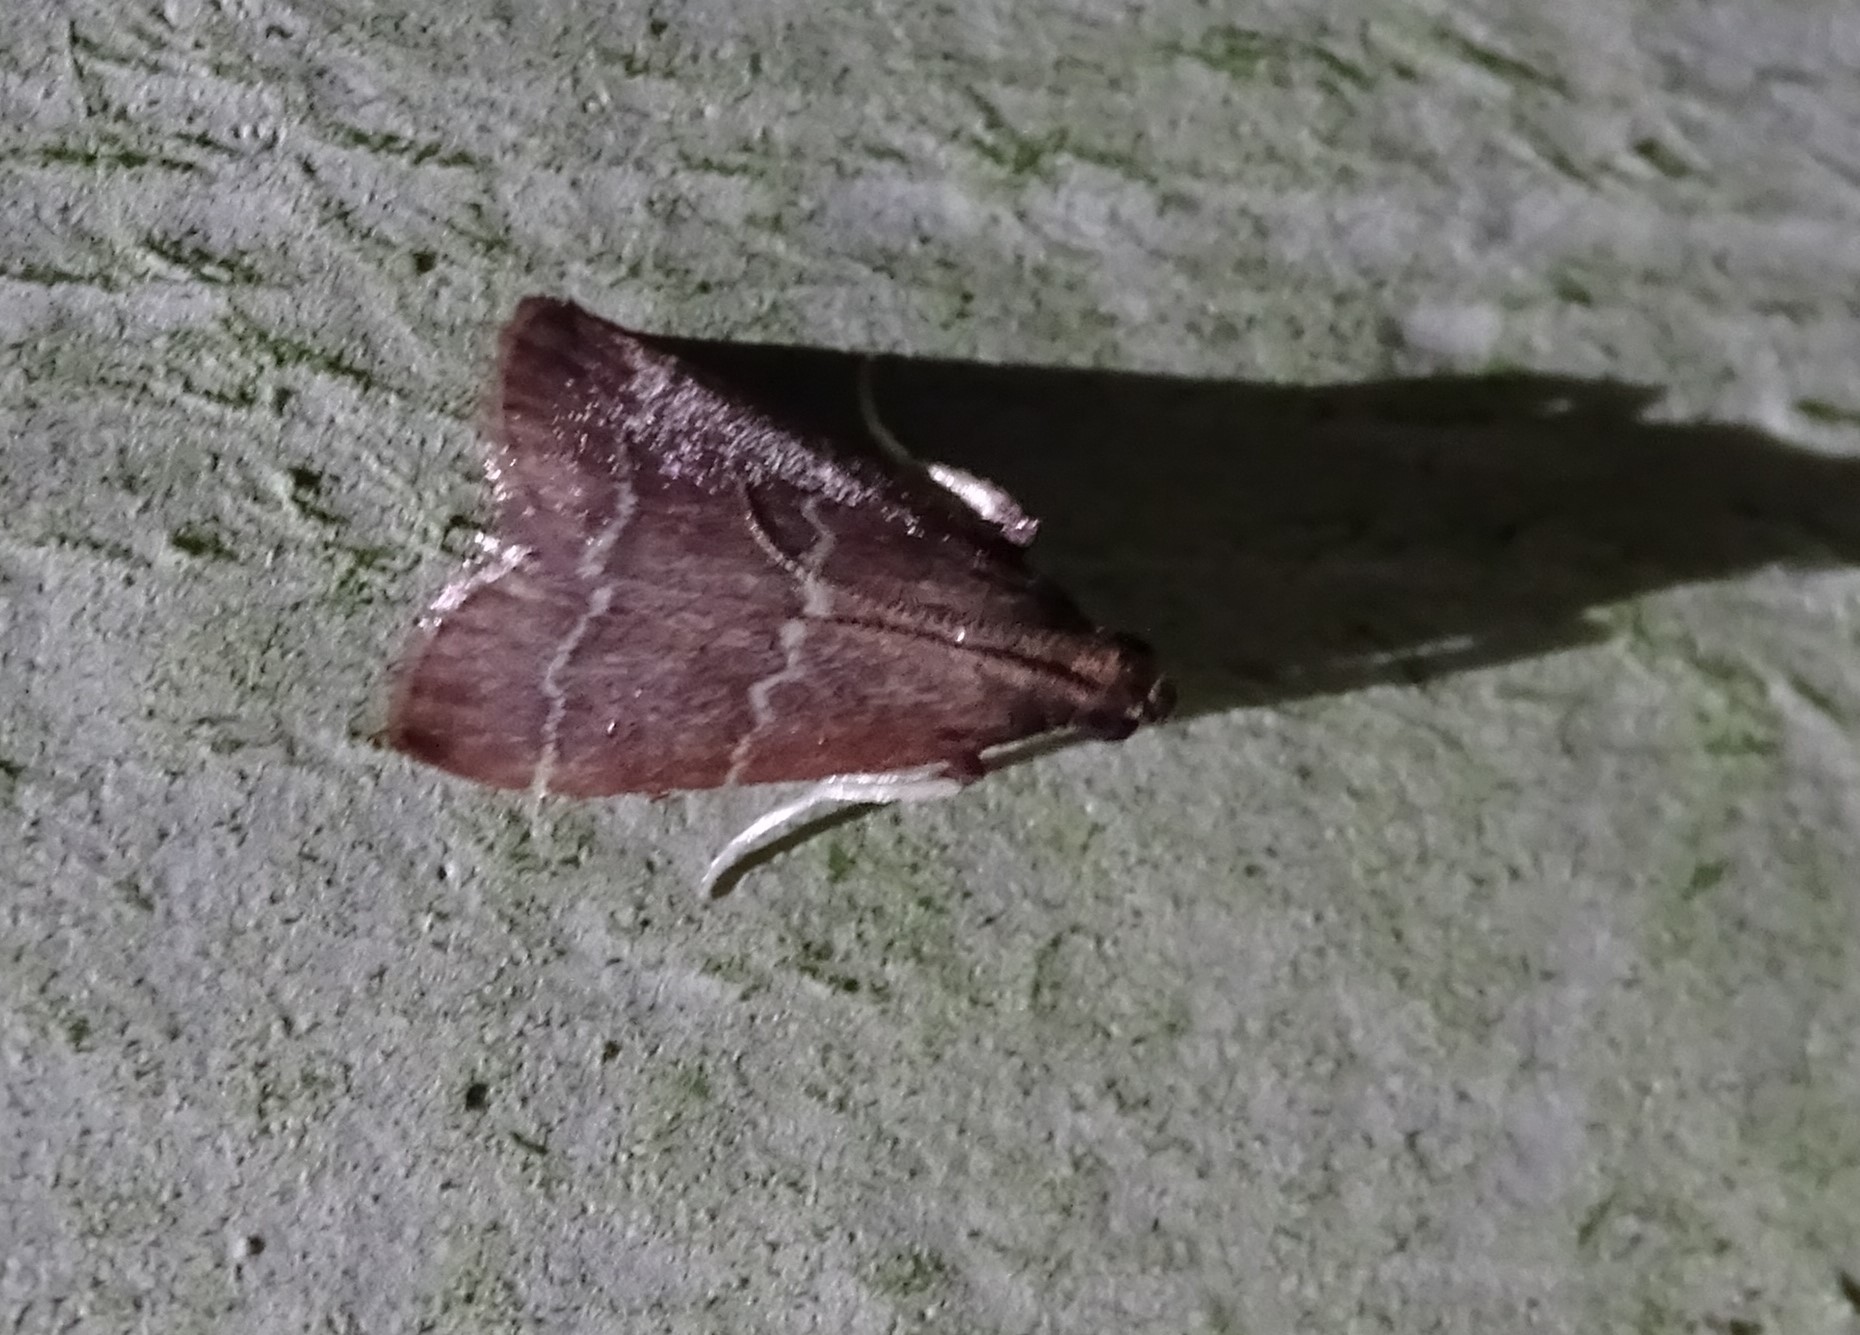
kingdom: Animalia
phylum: Arthropoda
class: Insecta
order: Lepidoptera
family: Pyralidae
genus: Arta
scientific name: Arta
